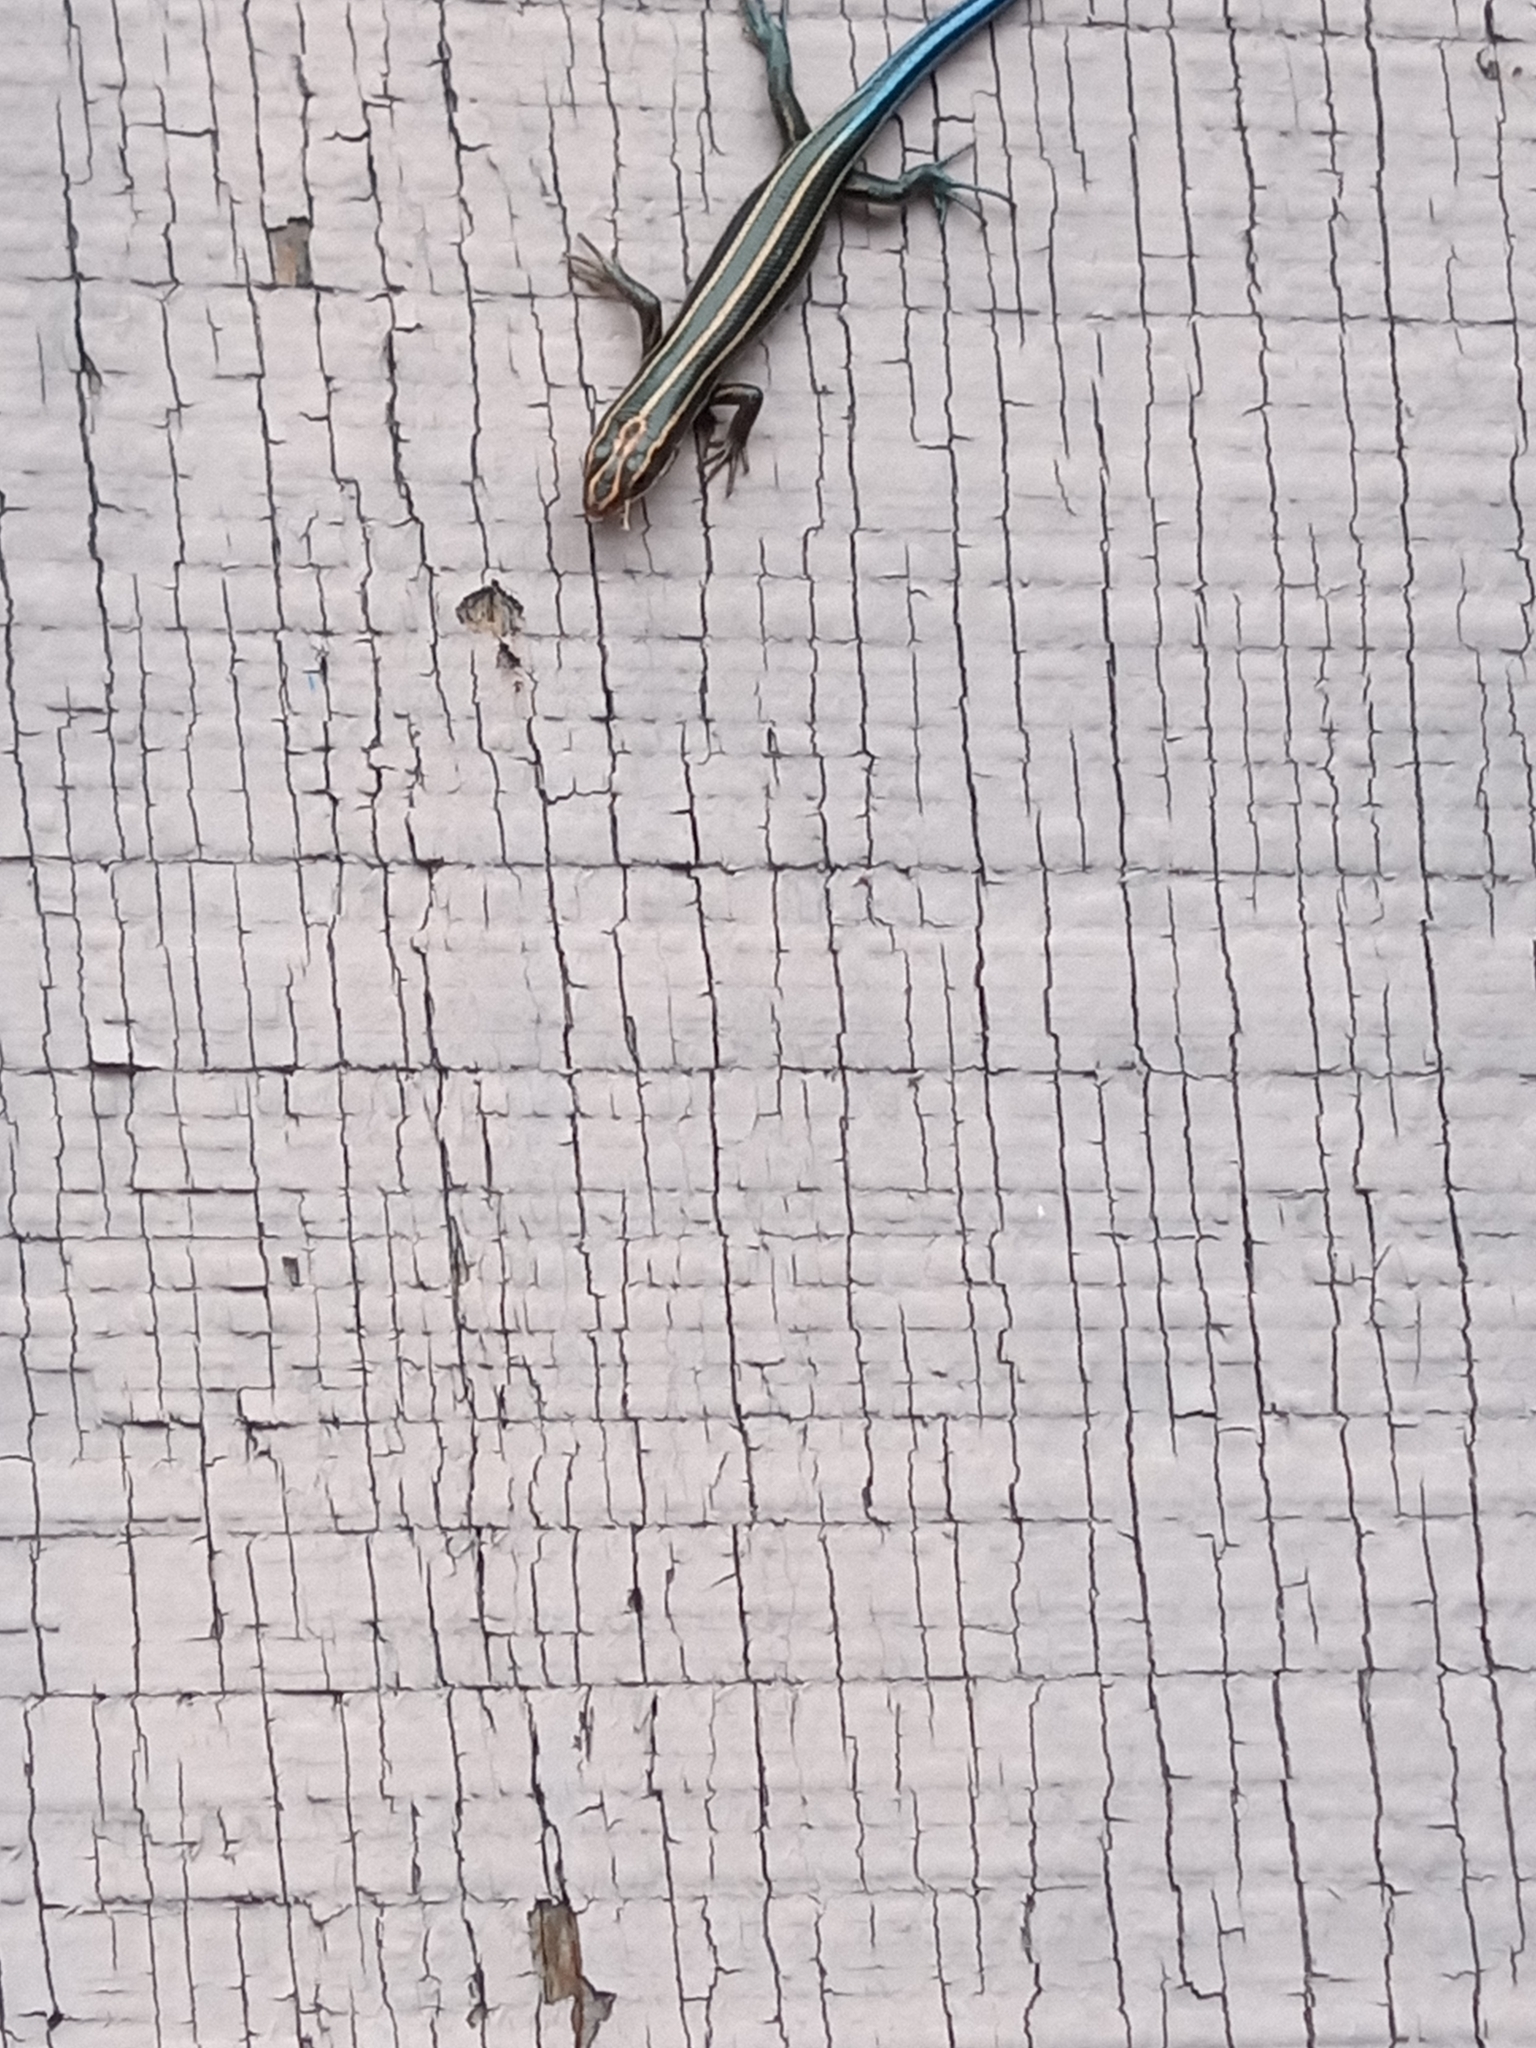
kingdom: Animalia
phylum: Chordata
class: Squamata
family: Scincidae
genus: Plestiodon
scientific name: Plestiodon fasciatus
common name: Five-lined skink
